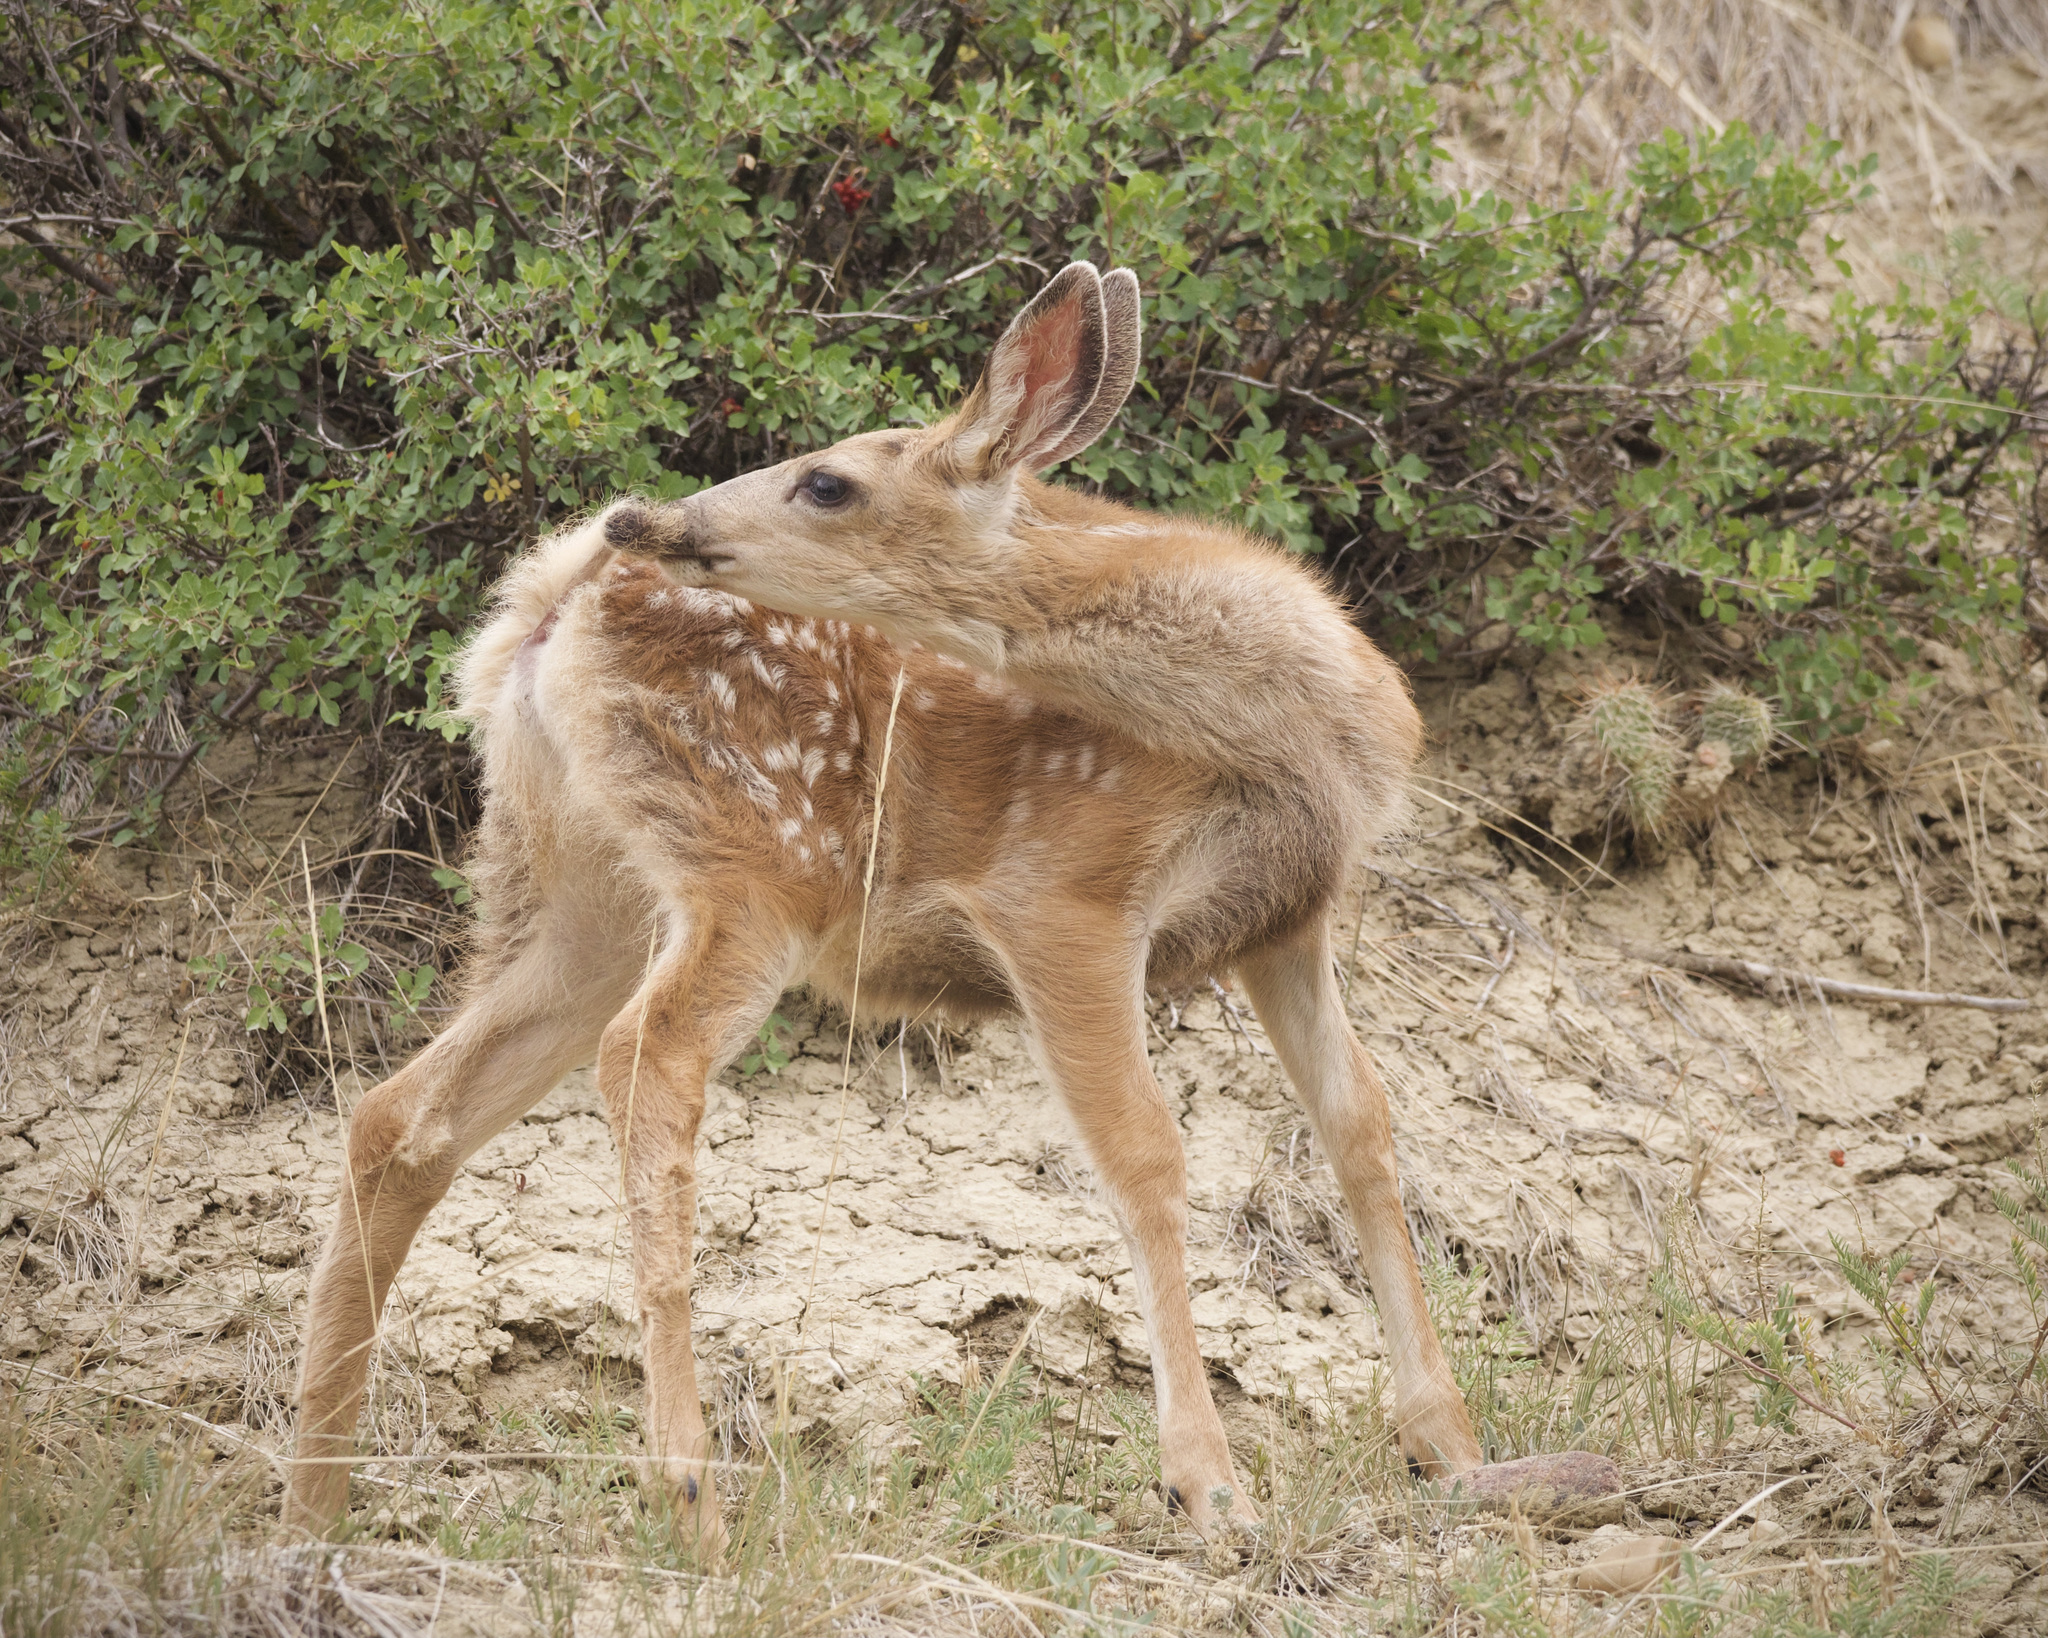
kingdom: Animalia
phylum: Chordata
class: Mammalia
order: Artiodactyla
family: Cervidae
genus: Odocoileus
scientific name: Odocoileus hemionus
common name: Mule deer
